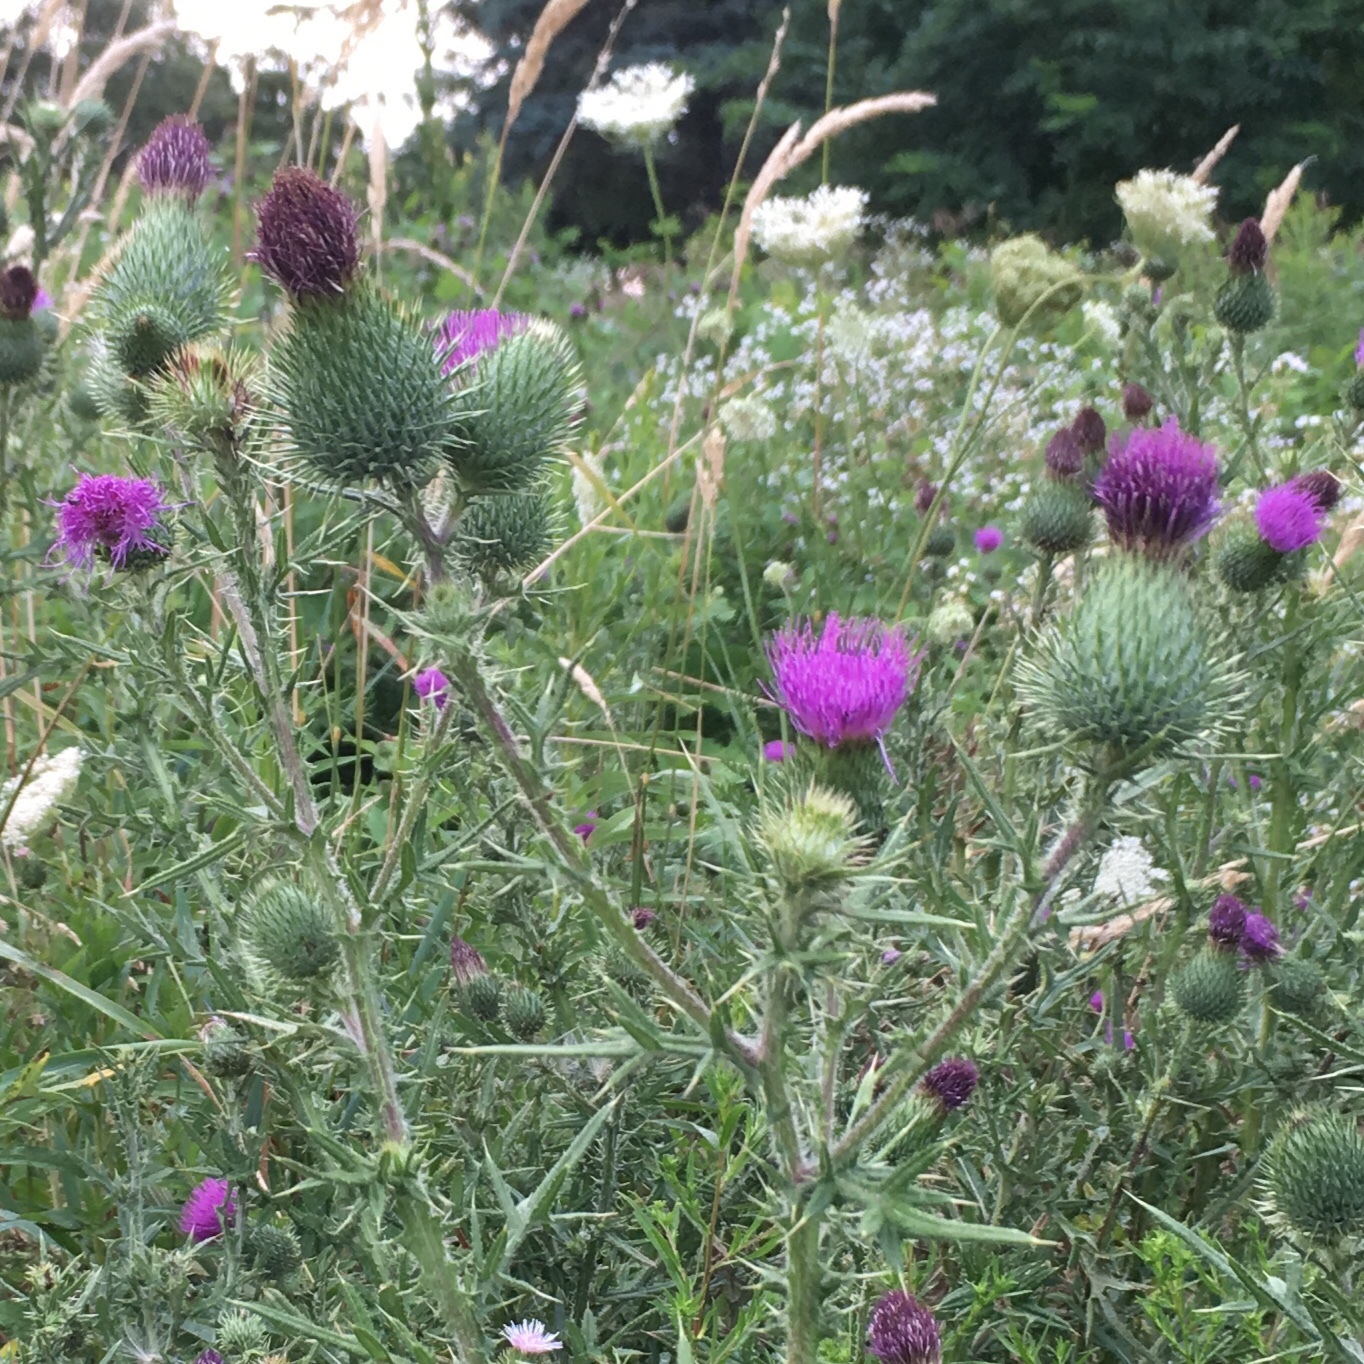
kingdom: Plantae
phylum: Tracheophyta
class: Magnoliopsida
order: Asterales
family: Asteraceae
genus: Cirsium
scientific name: Cirsium vulgare
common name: Bull thistle
